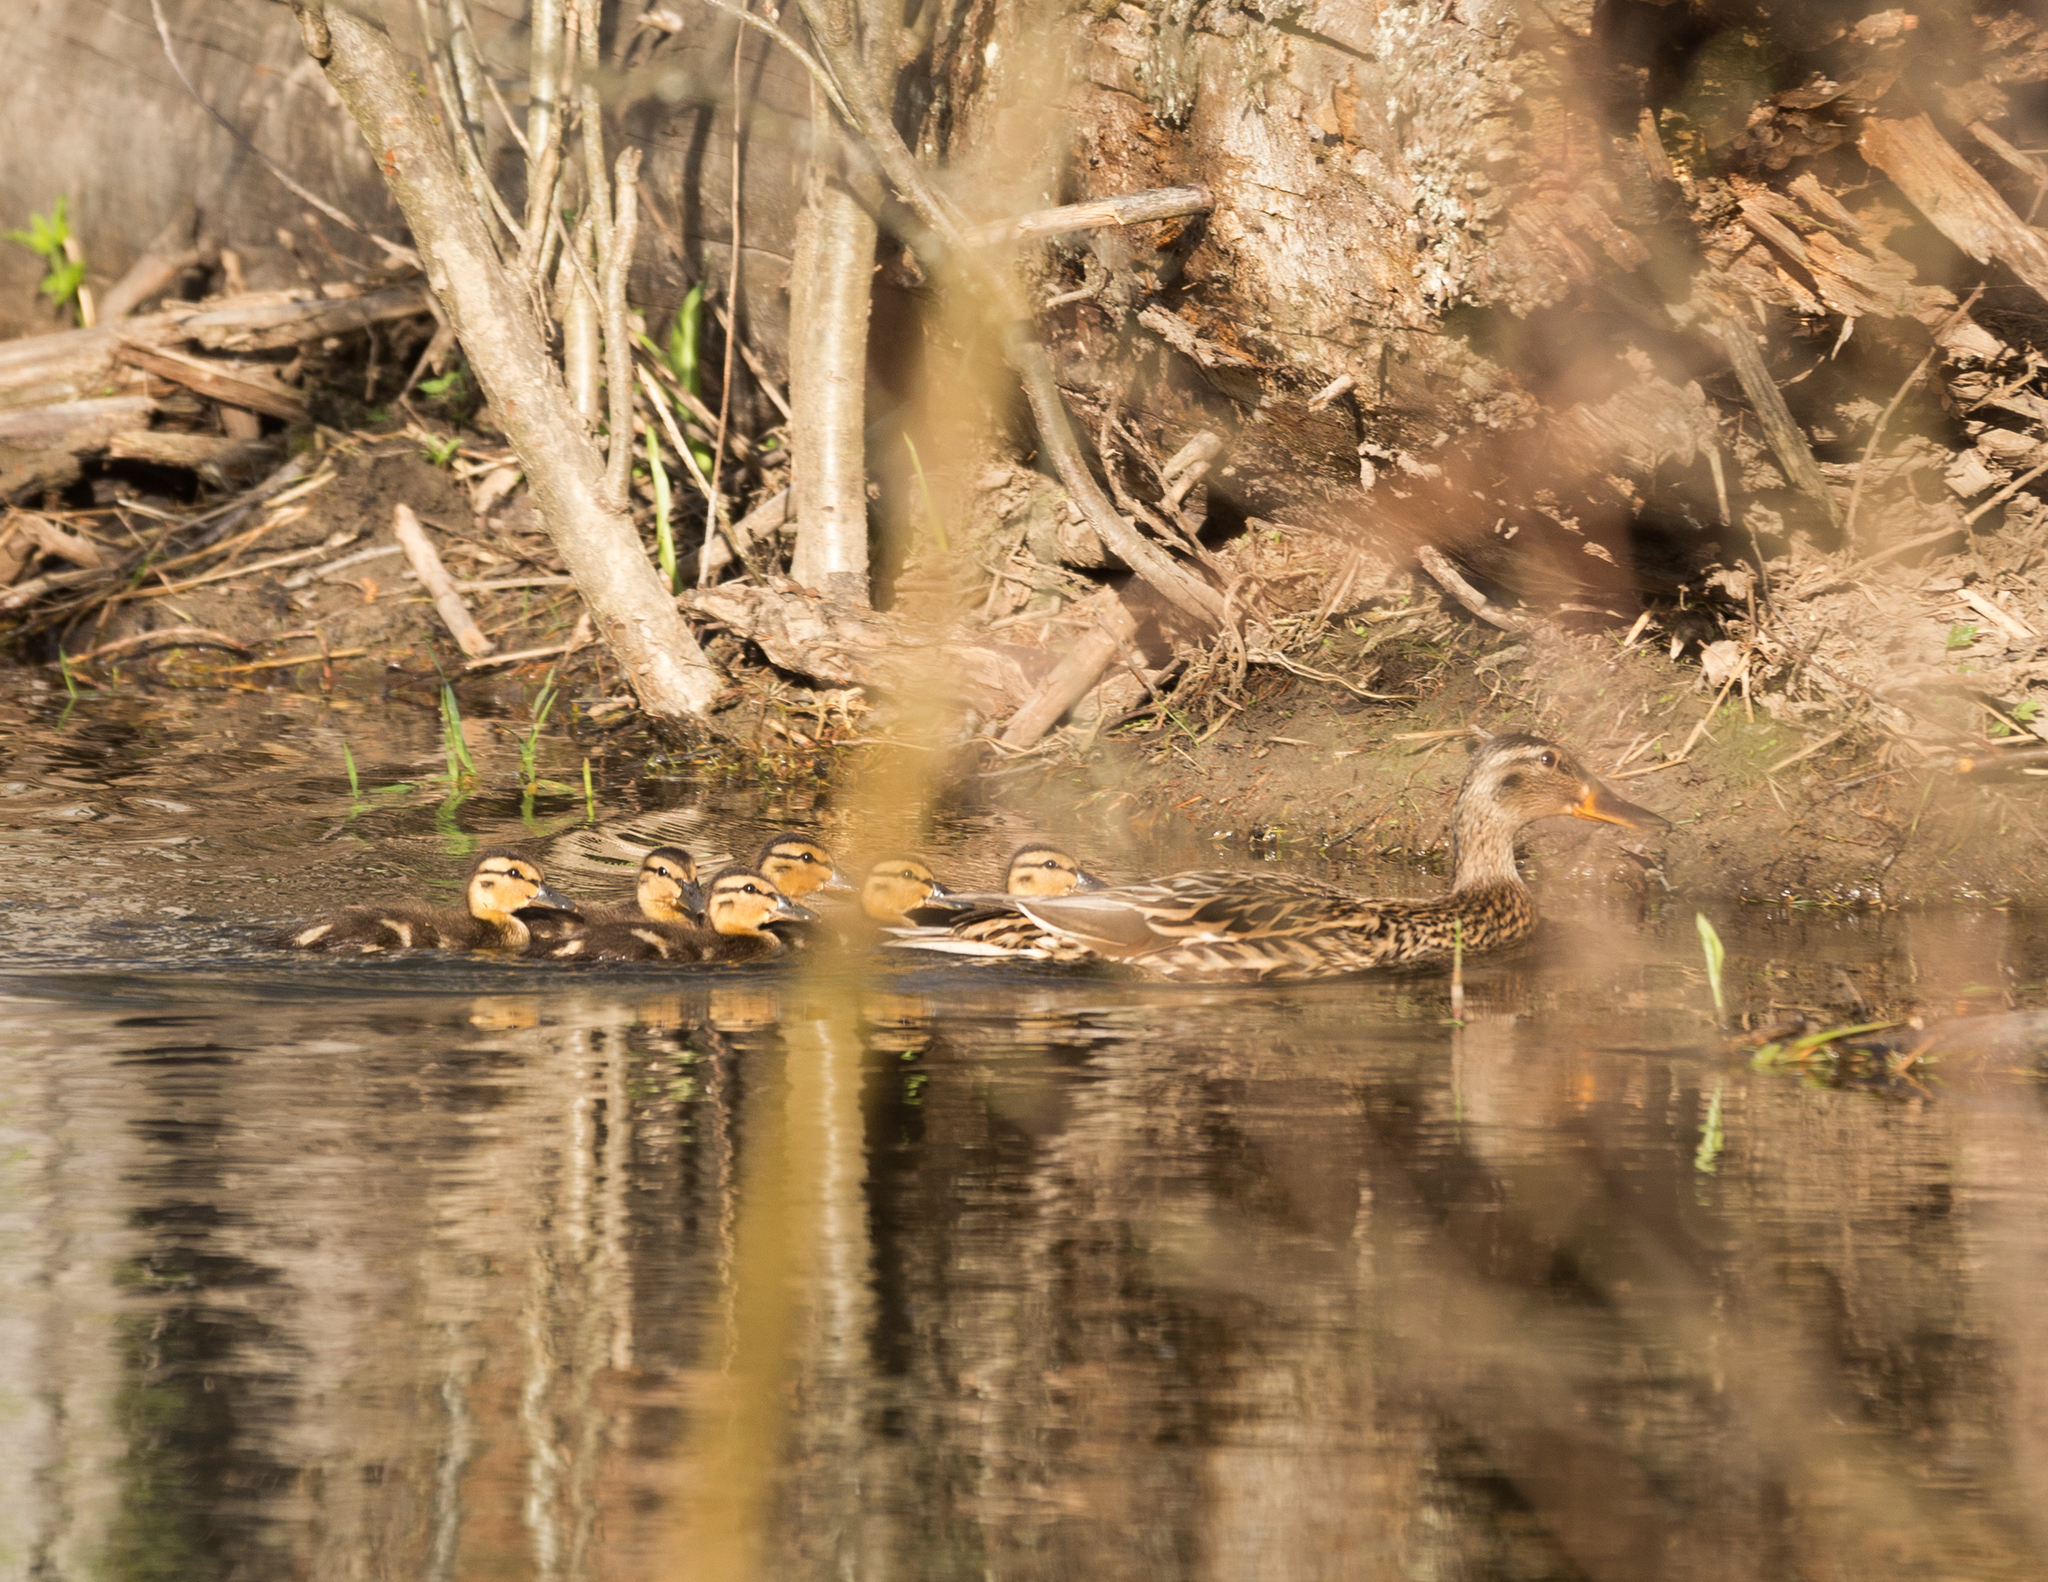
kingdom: Animalia
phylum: Chordata
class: Aves
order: Anseriformes
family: Anatidae
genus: Anas
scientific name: Anas platyrhynchos
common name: Mallard
